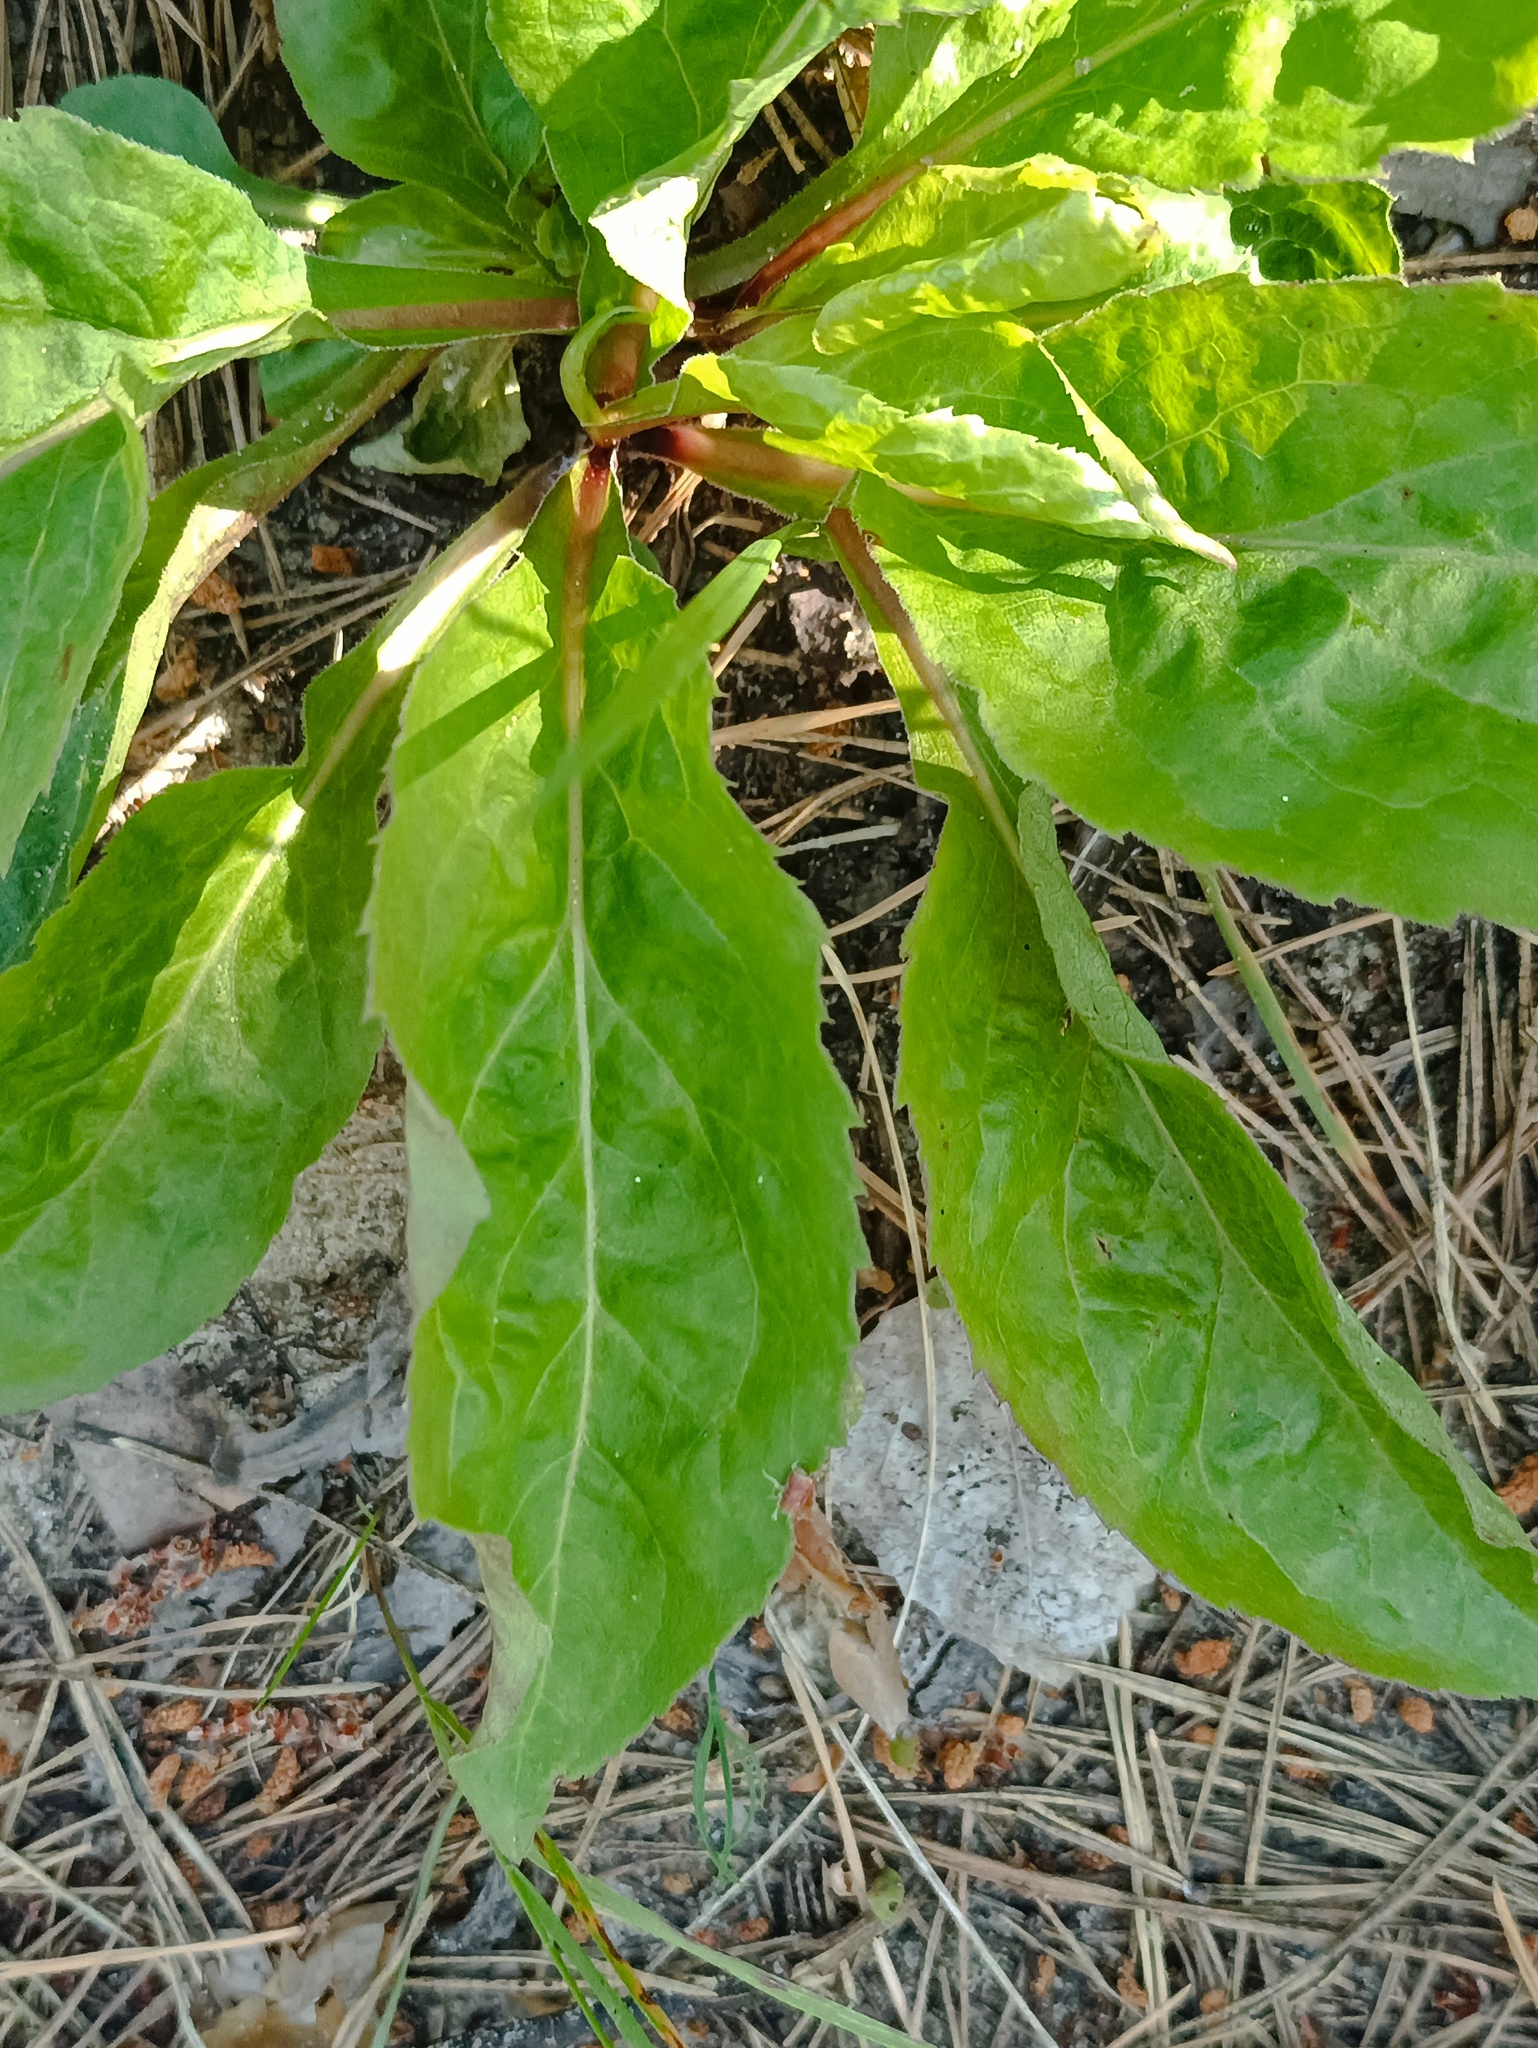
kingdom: Plantae
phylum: Tracheophyta
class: Magnoliopsida
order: Asterales
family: Asteraceae
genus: Solidago
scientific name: Solidago virgaurea
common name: Goldenrod
